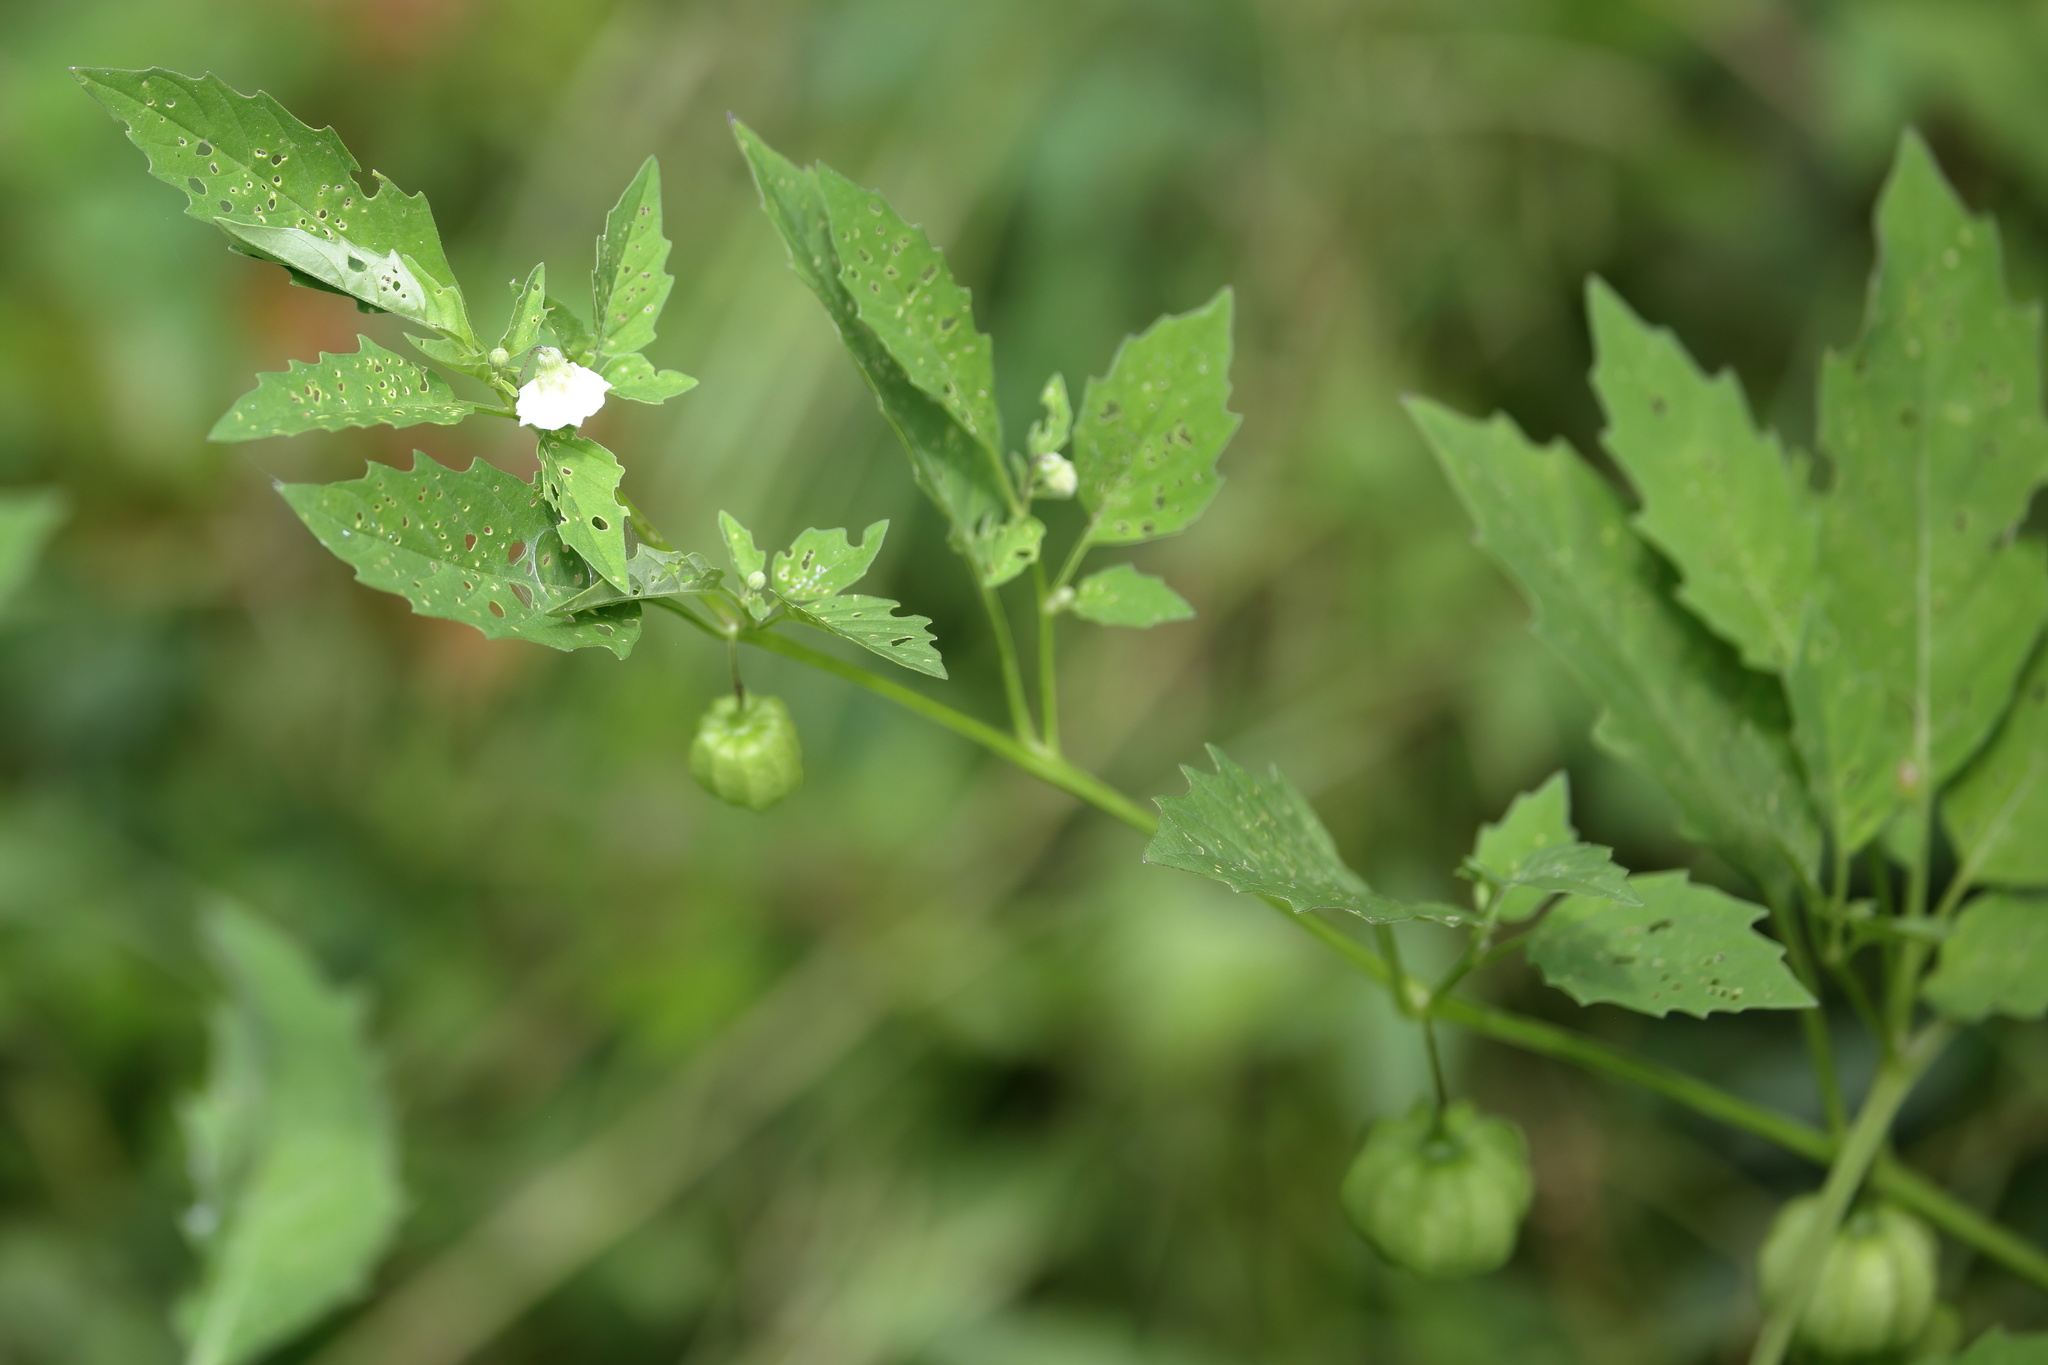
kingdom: Plantae
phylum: Tracheophyta
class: Magnoliopsida
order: Solanales
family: Solanaceae
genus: Physalis
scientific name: Physalis angulata
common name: Angular winter-cherry
